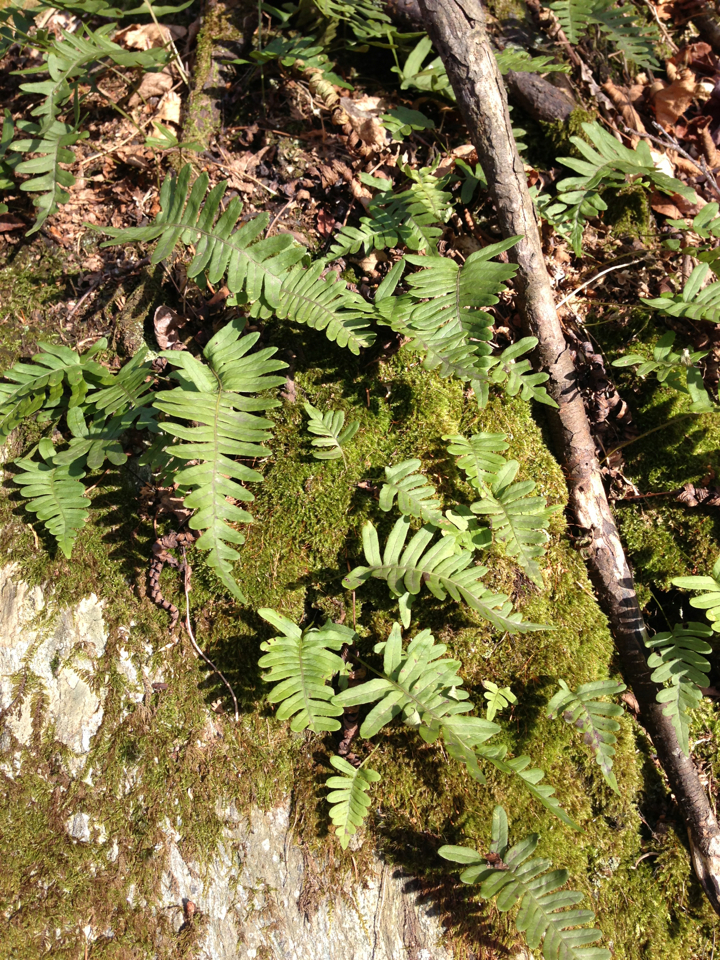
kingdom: Plantae
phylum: Tracheophyta
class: Polypodiopsida
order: Polypodiales
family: Polypodiaceae
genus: Polypodium
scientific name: Polypodium virginianum
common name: American wall fern
